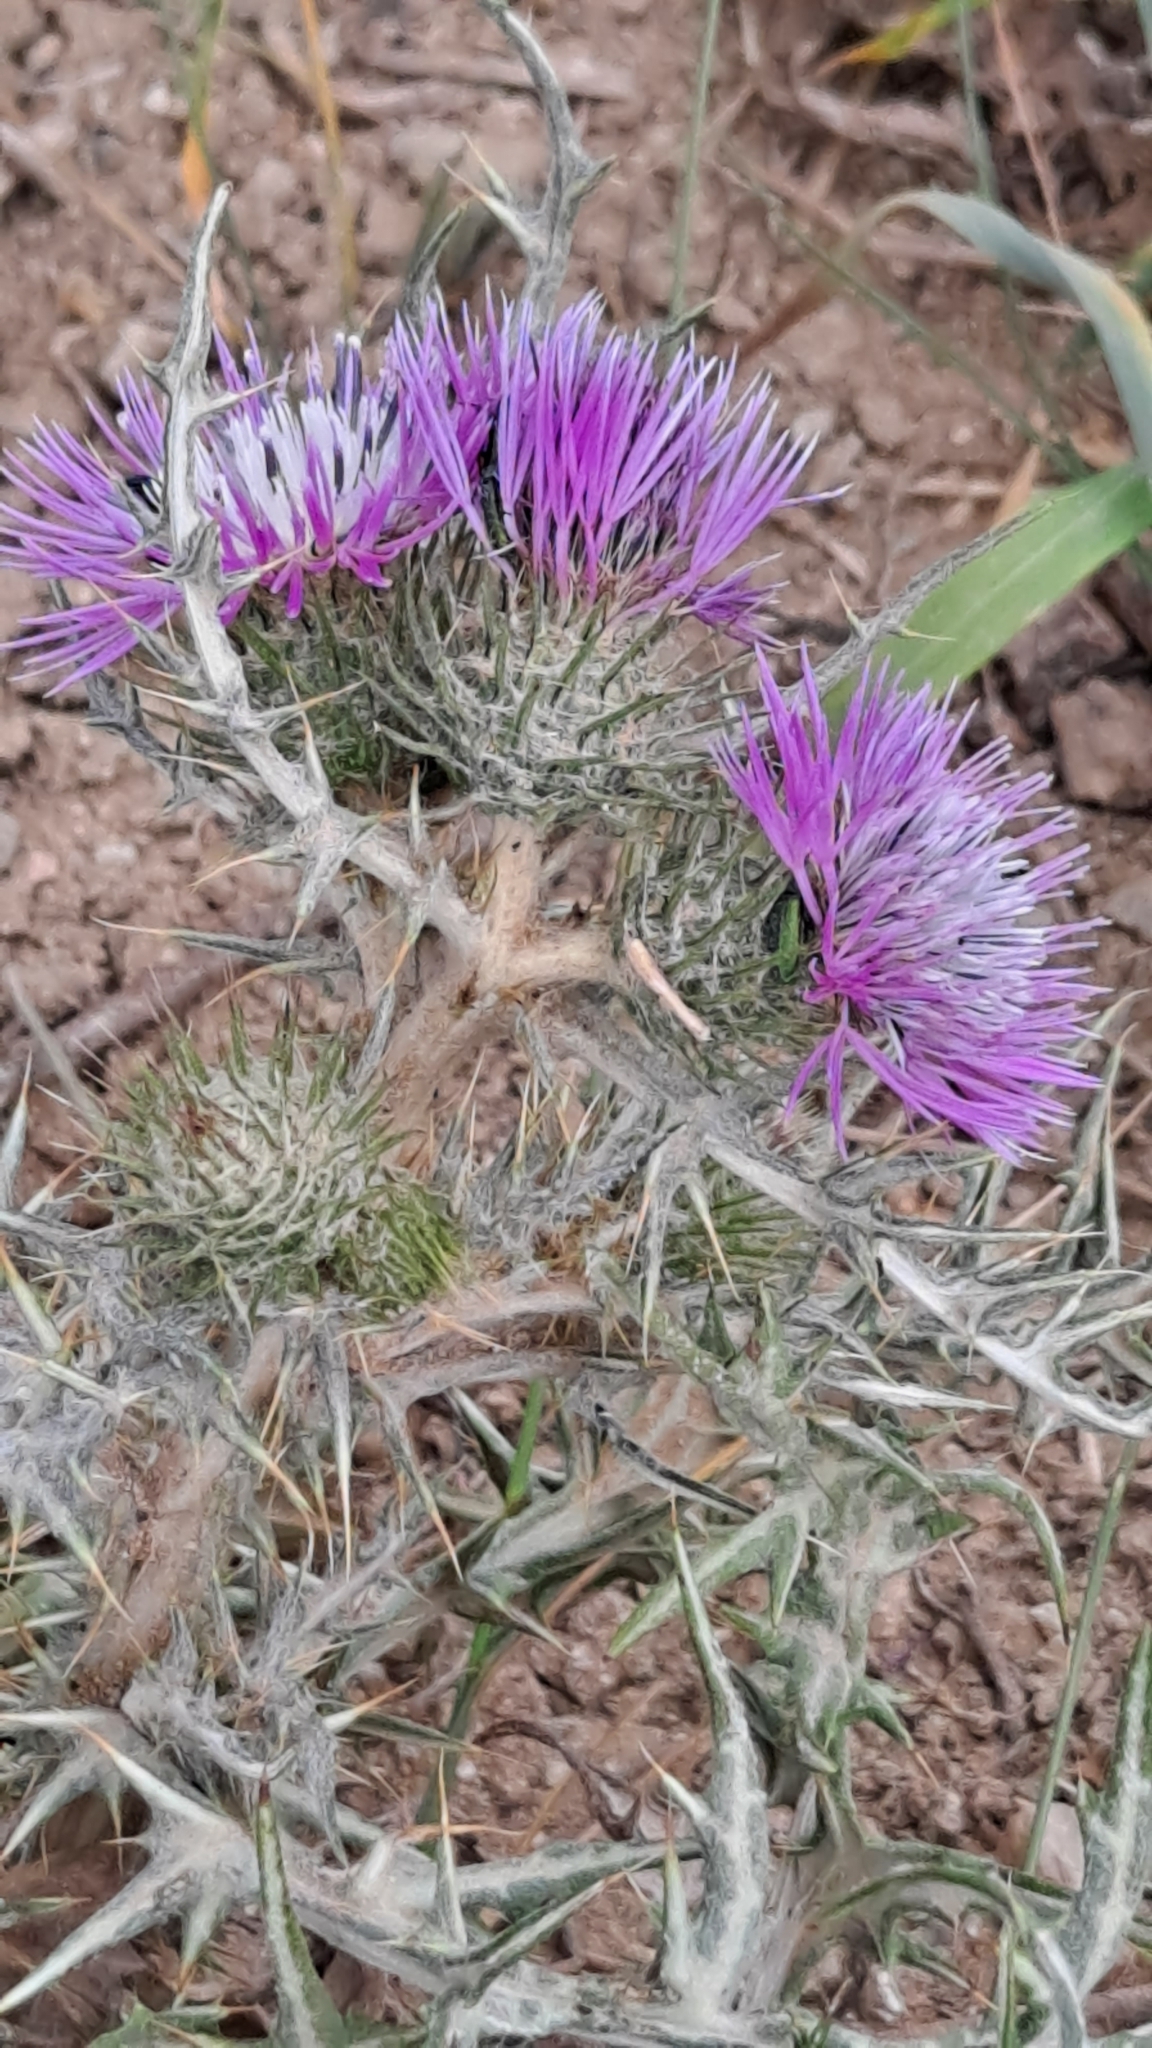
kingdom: Plantae
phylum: Tracheophyta
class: Magnoliopsida
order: Asterales
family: Asteraceae
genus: Galactites
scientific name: Galactites tomentosa
